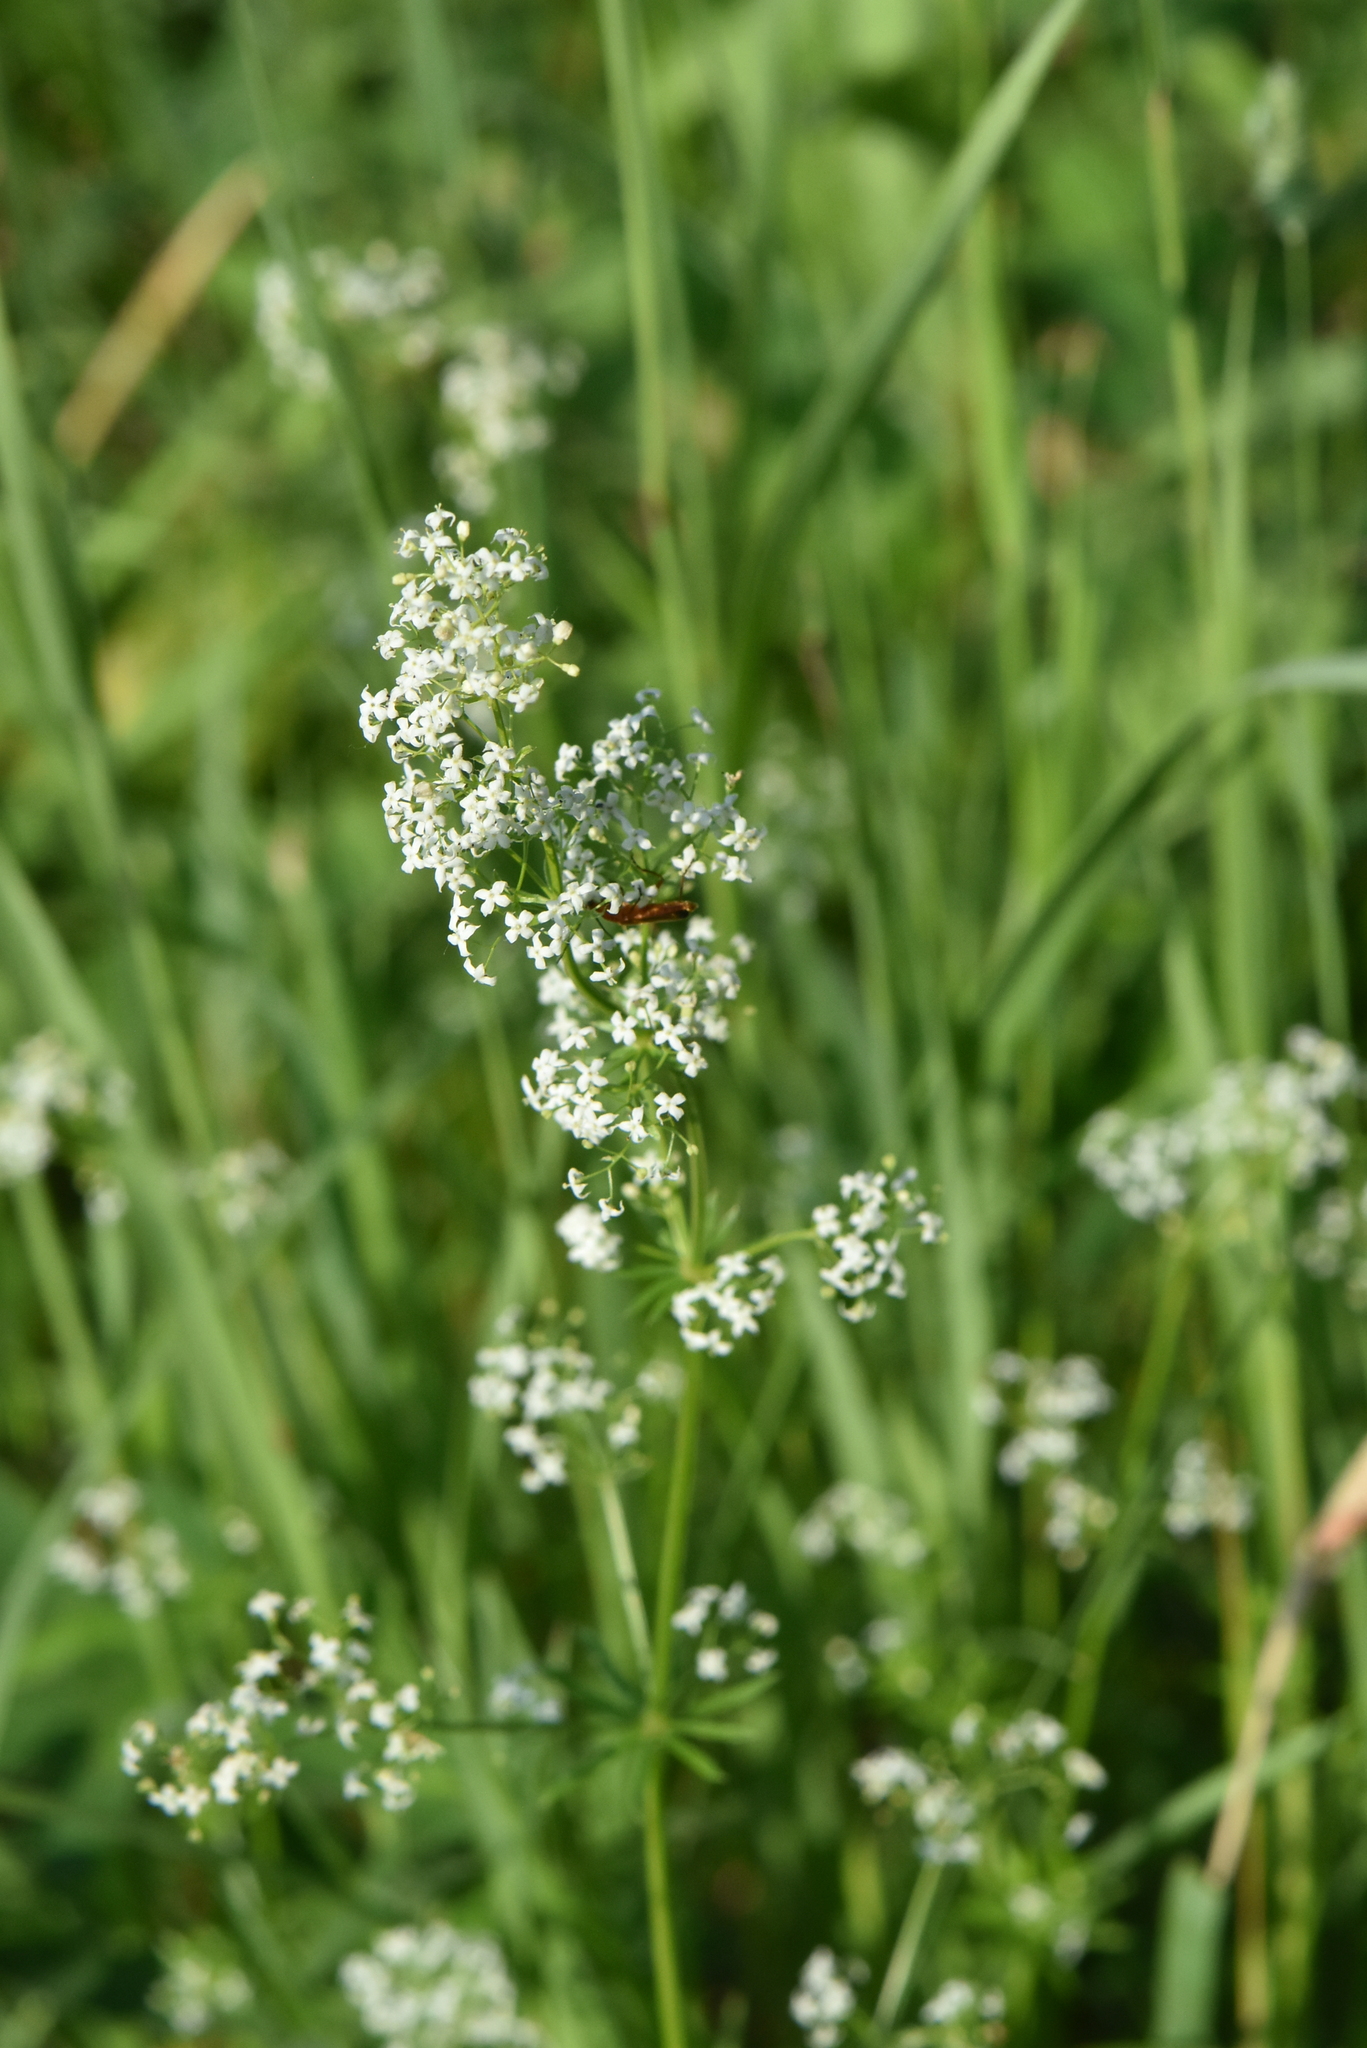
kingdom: Plantae
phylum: Tracheophyta
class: Magnoliopsida
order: Gentianales
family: Rubiaceae
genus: Galium
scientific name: Galium mollugo
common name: Hedge bedstraw
